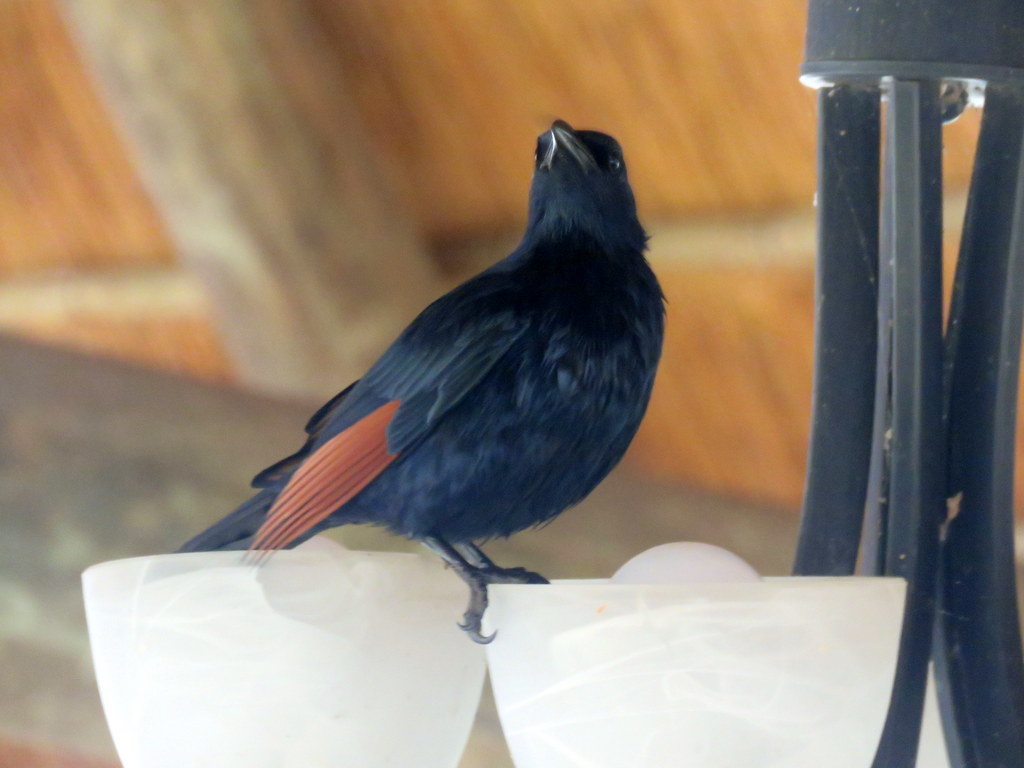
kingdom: Animalia
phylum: Chordata
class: Aves
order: Passeriformes
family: Sturnidae
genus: Onychognathus
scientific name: Onychognathus morio
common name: Red-winged starling
